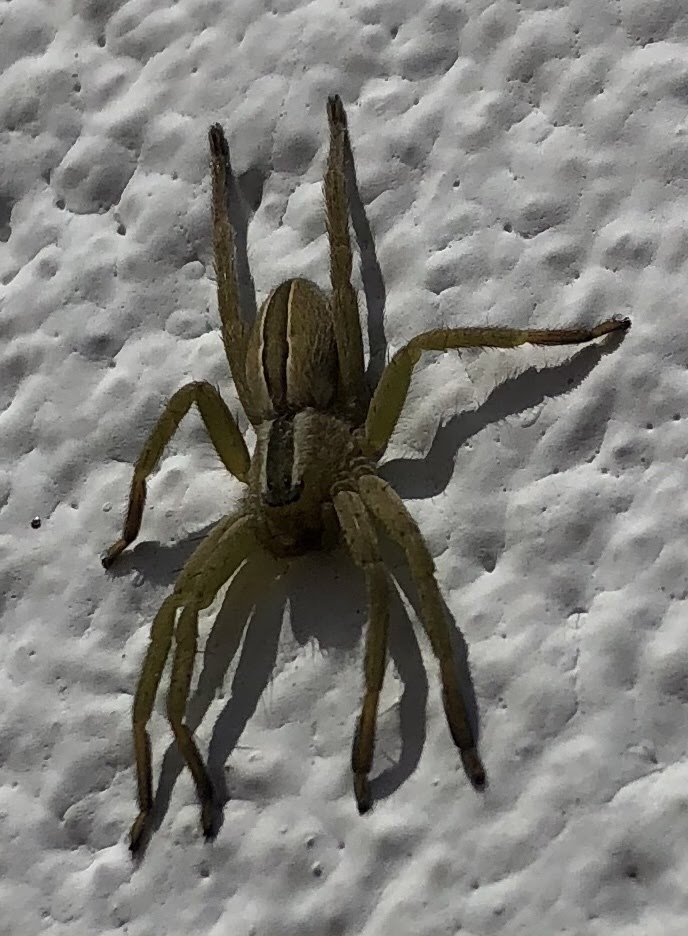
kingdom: Animalia
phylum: Arthropoda
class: Arachnida
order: Araneae
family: Sparassidae
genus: Micrommata
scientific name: Micrommata ligurina
